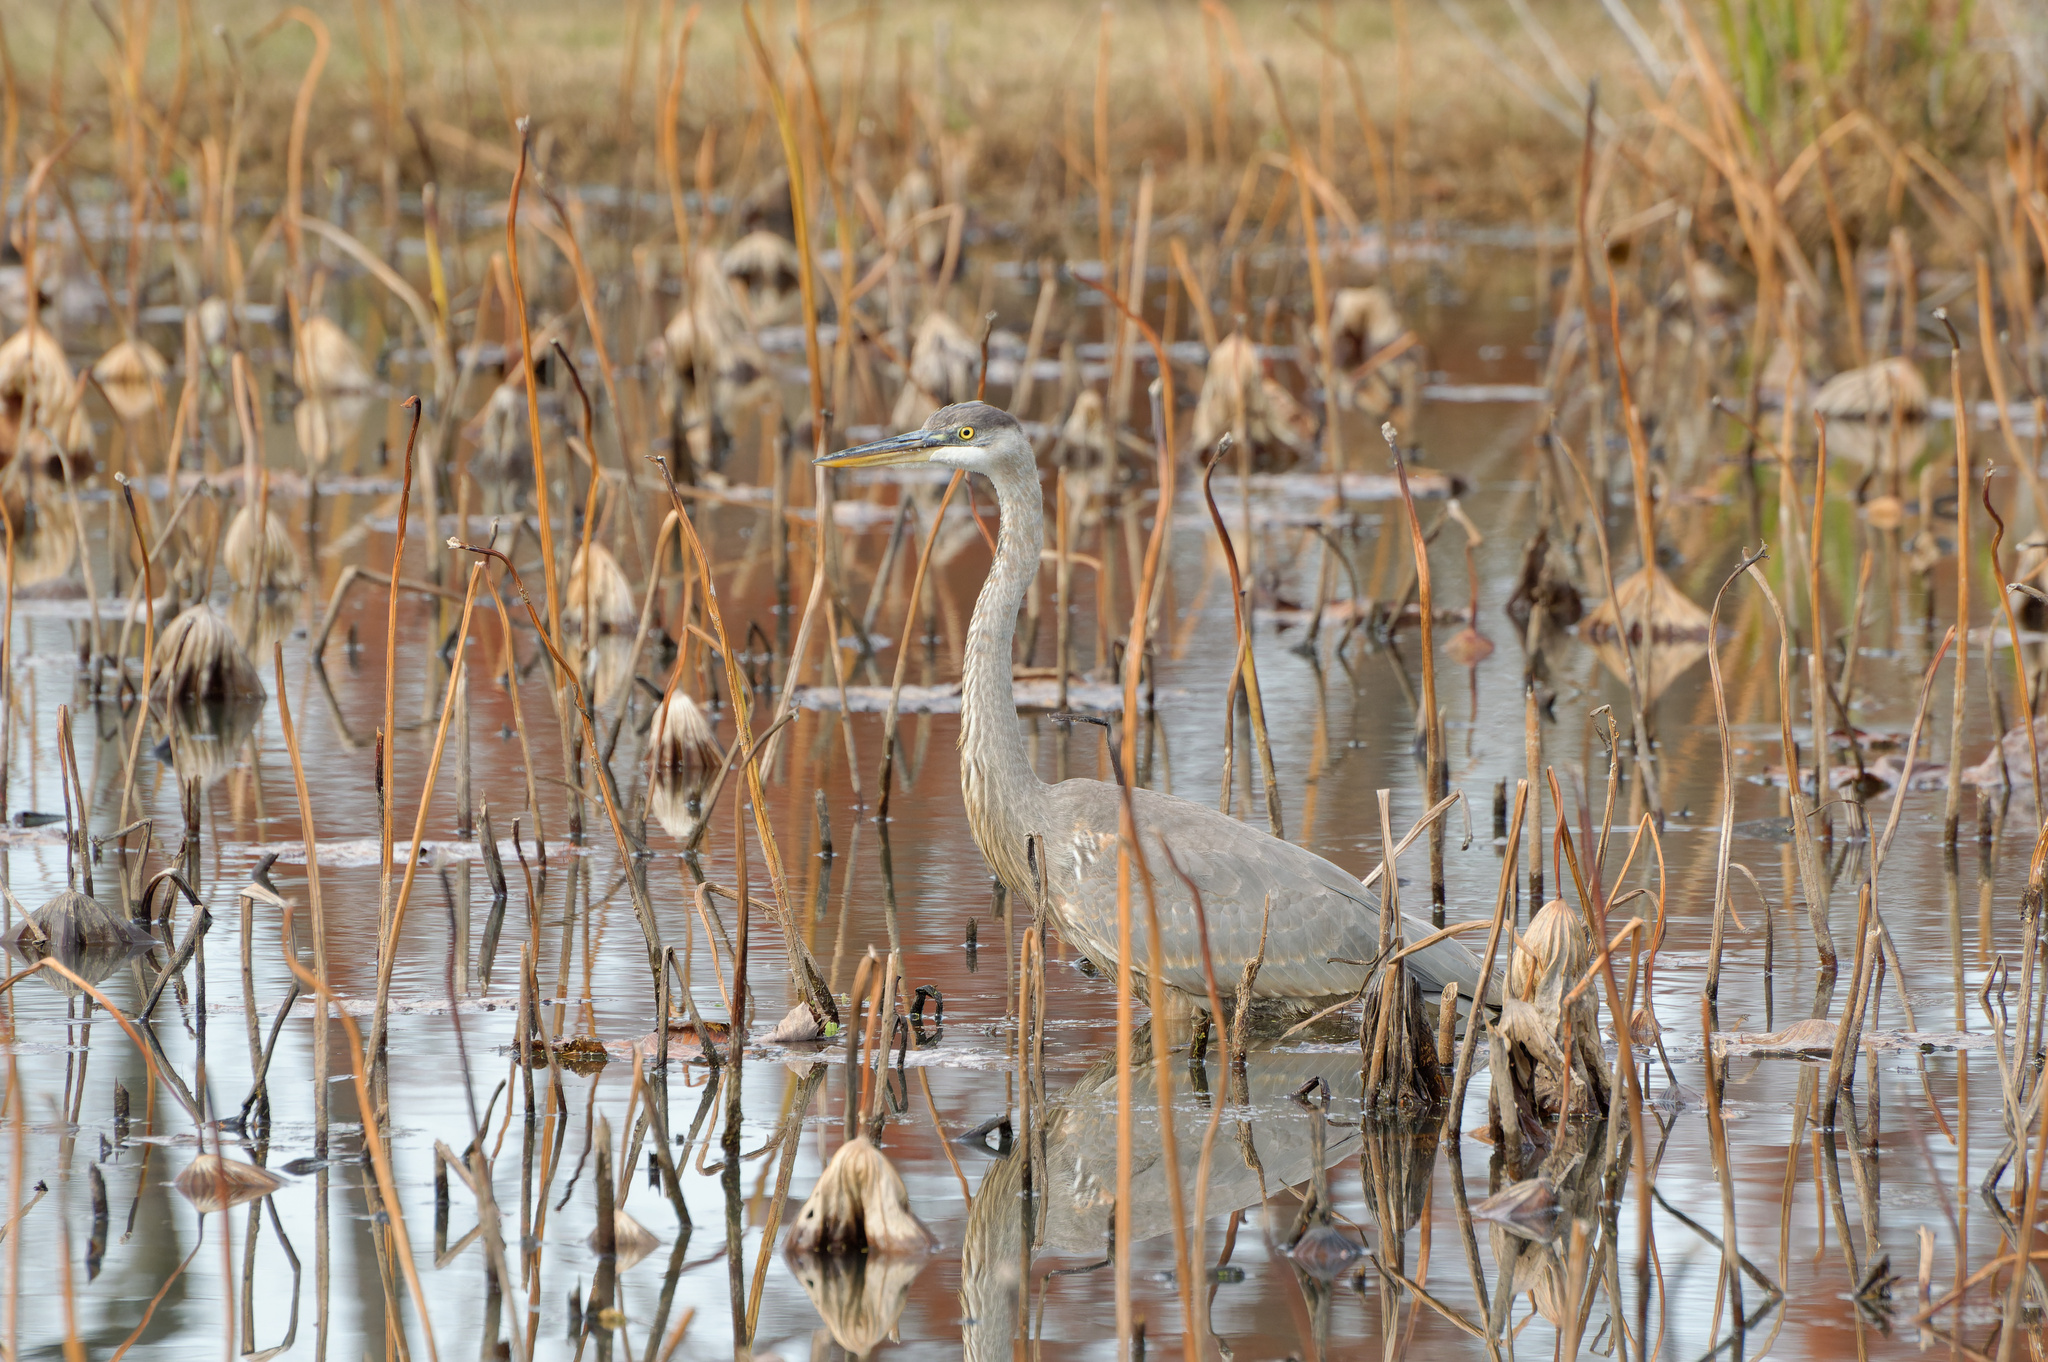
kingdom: Animalia
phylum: Chordata
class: Aves
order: Pelecaniformes
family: Ardeidae
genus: Ardea
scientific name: Ardea herodias
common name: Great blue heron
